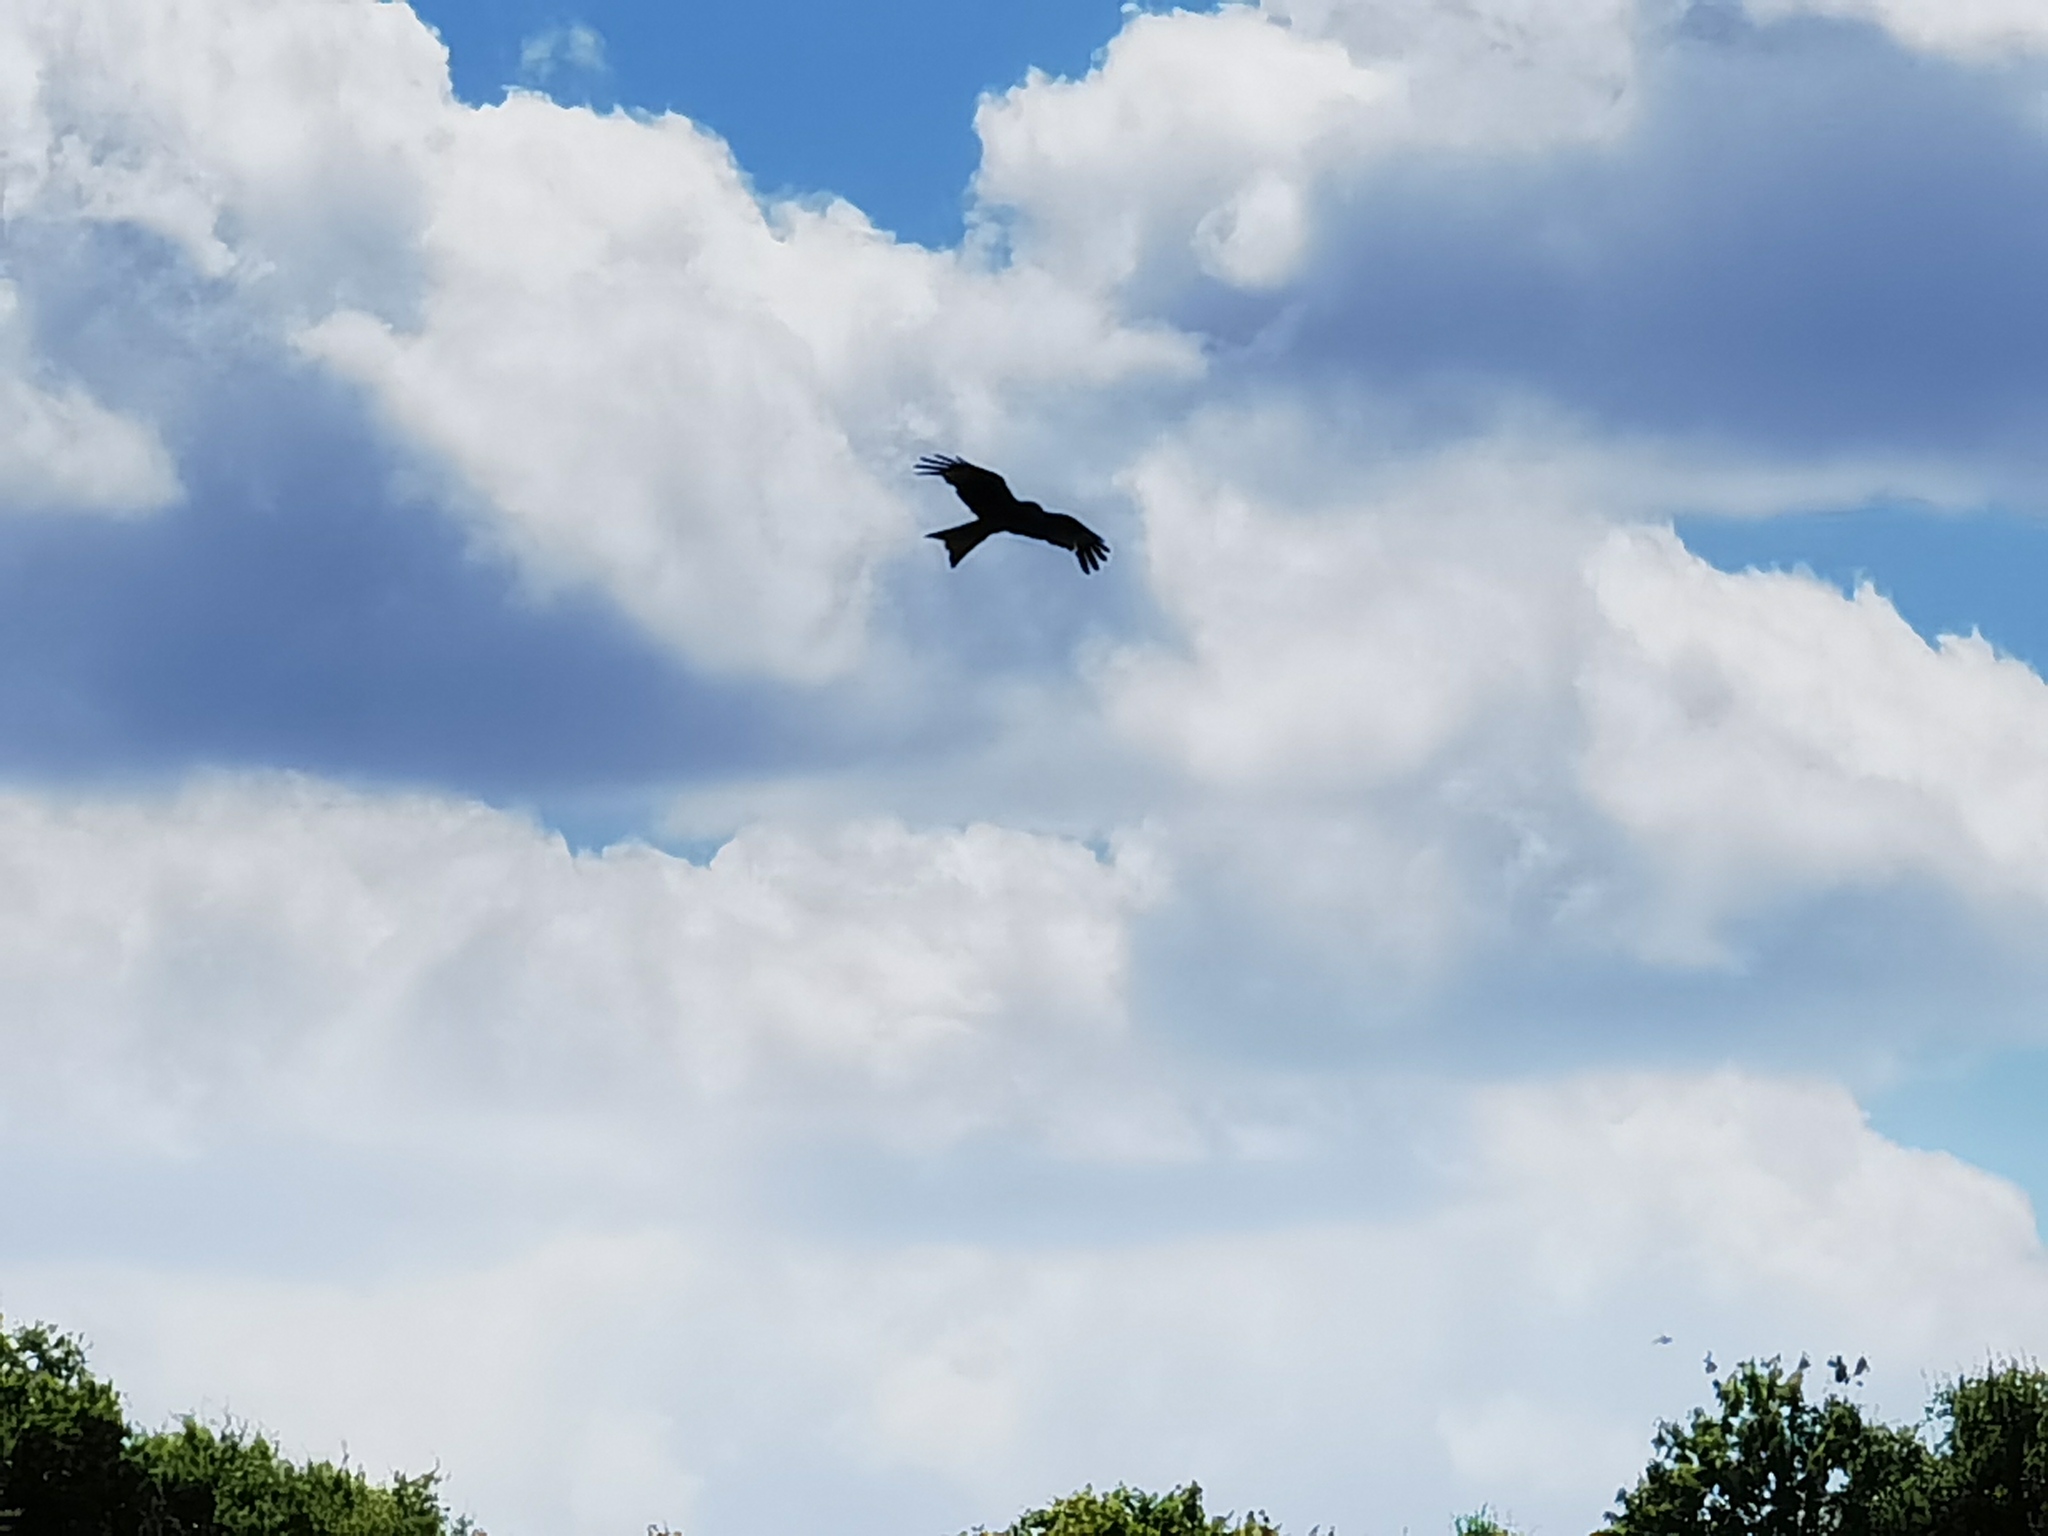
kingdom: Animalia
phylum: Chordata
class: Aves
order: Accipitriformes
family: Accipitridae
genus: Milvus
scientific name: Milvus milvus
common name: Red kite
